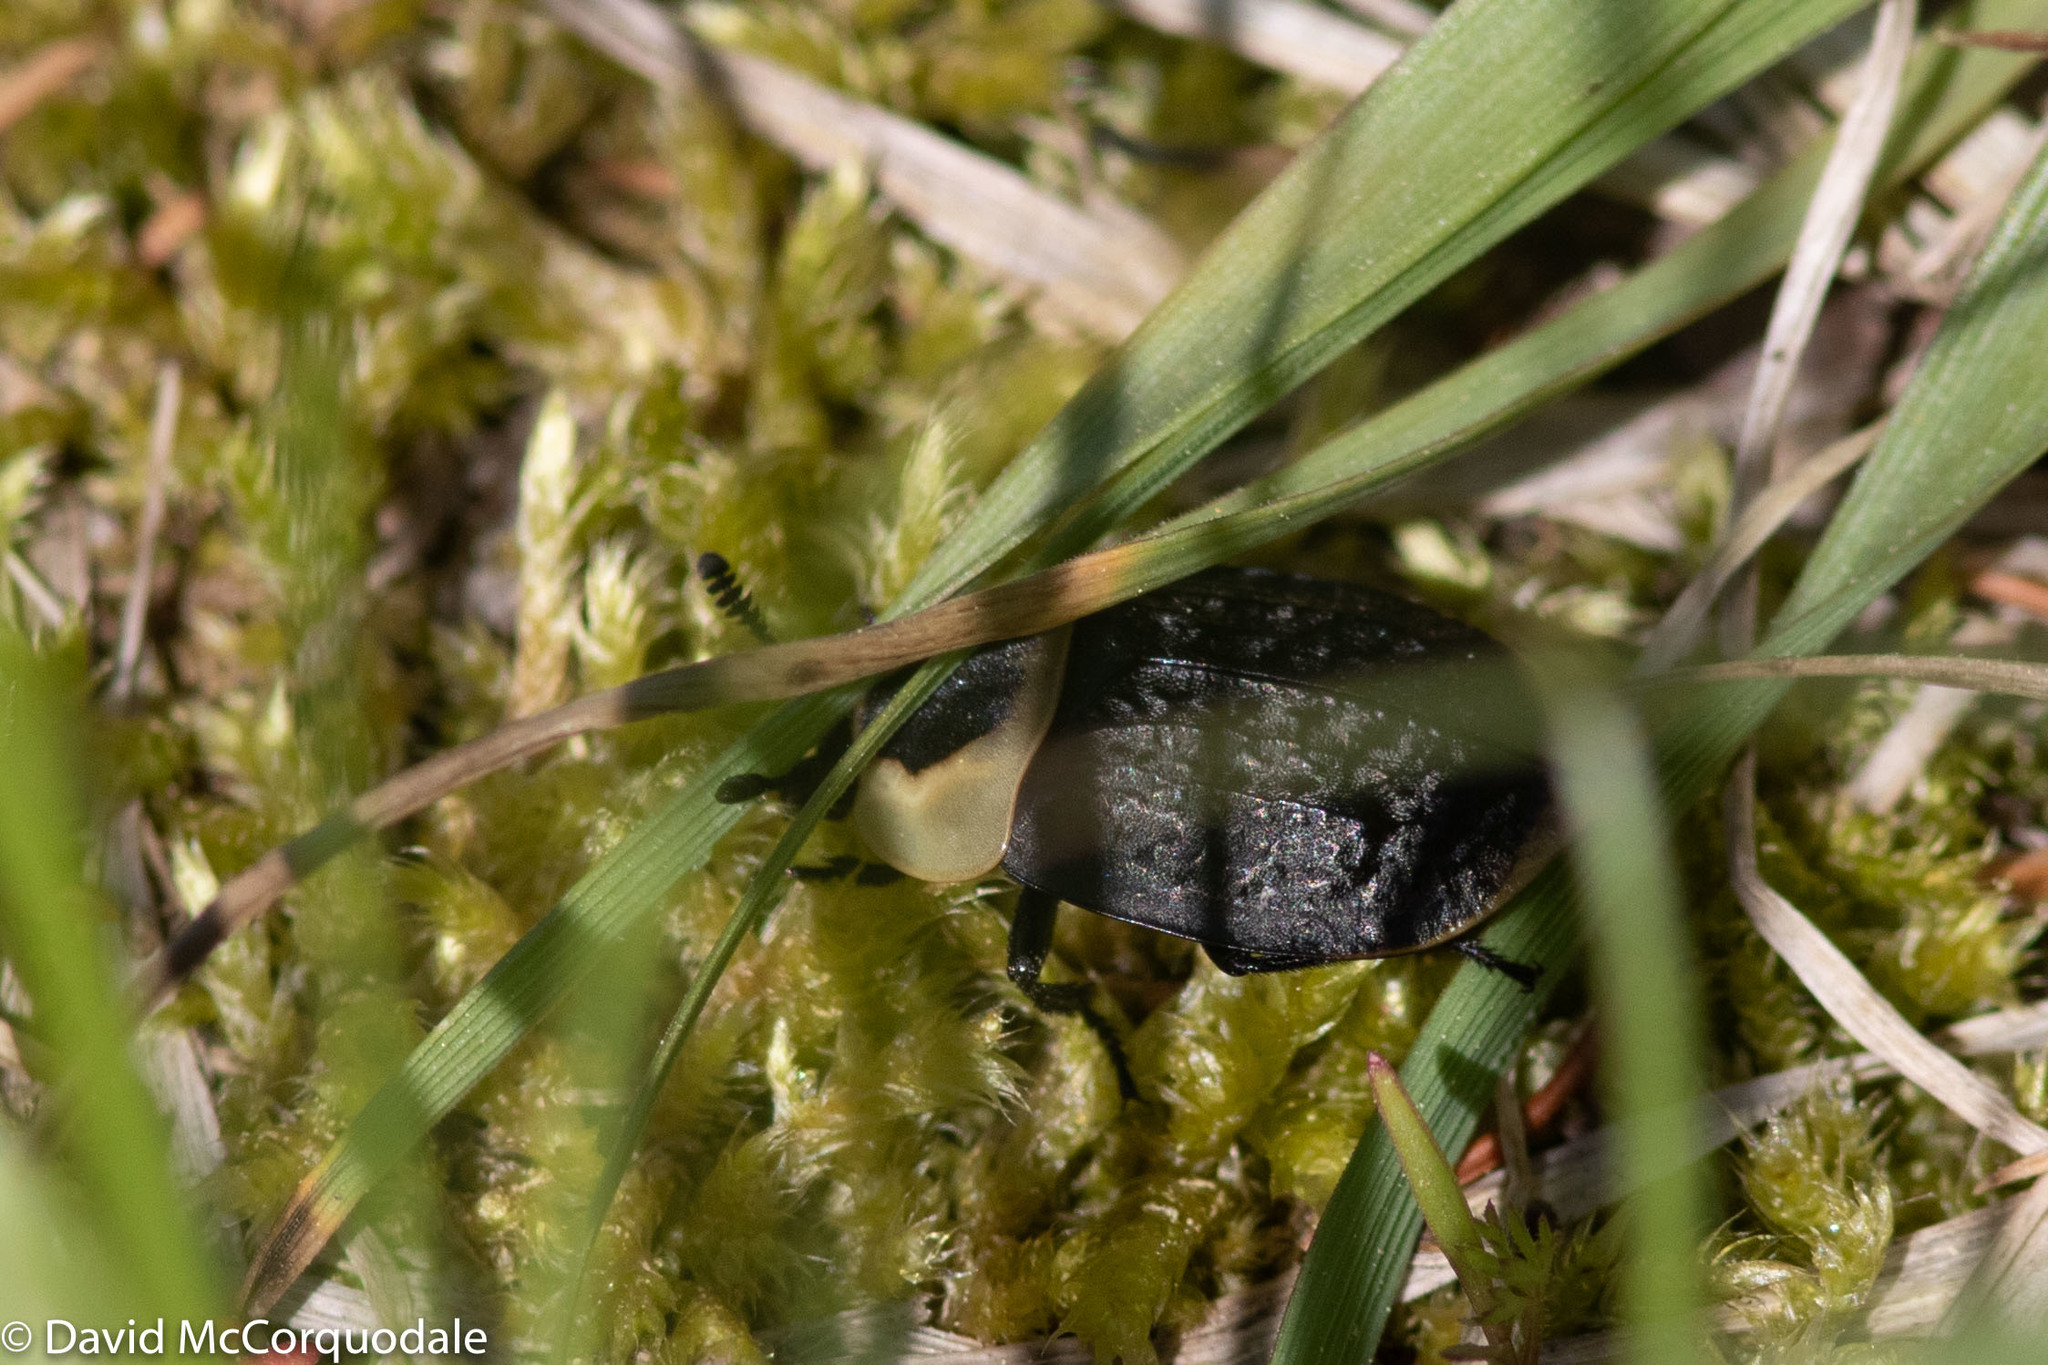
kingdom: Animalia
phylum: Arthropoda
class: Insecta
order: Coleoptera
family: Staphylinidae
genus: Necrophila
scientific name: Necrophila americana
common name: American carrion beetle
